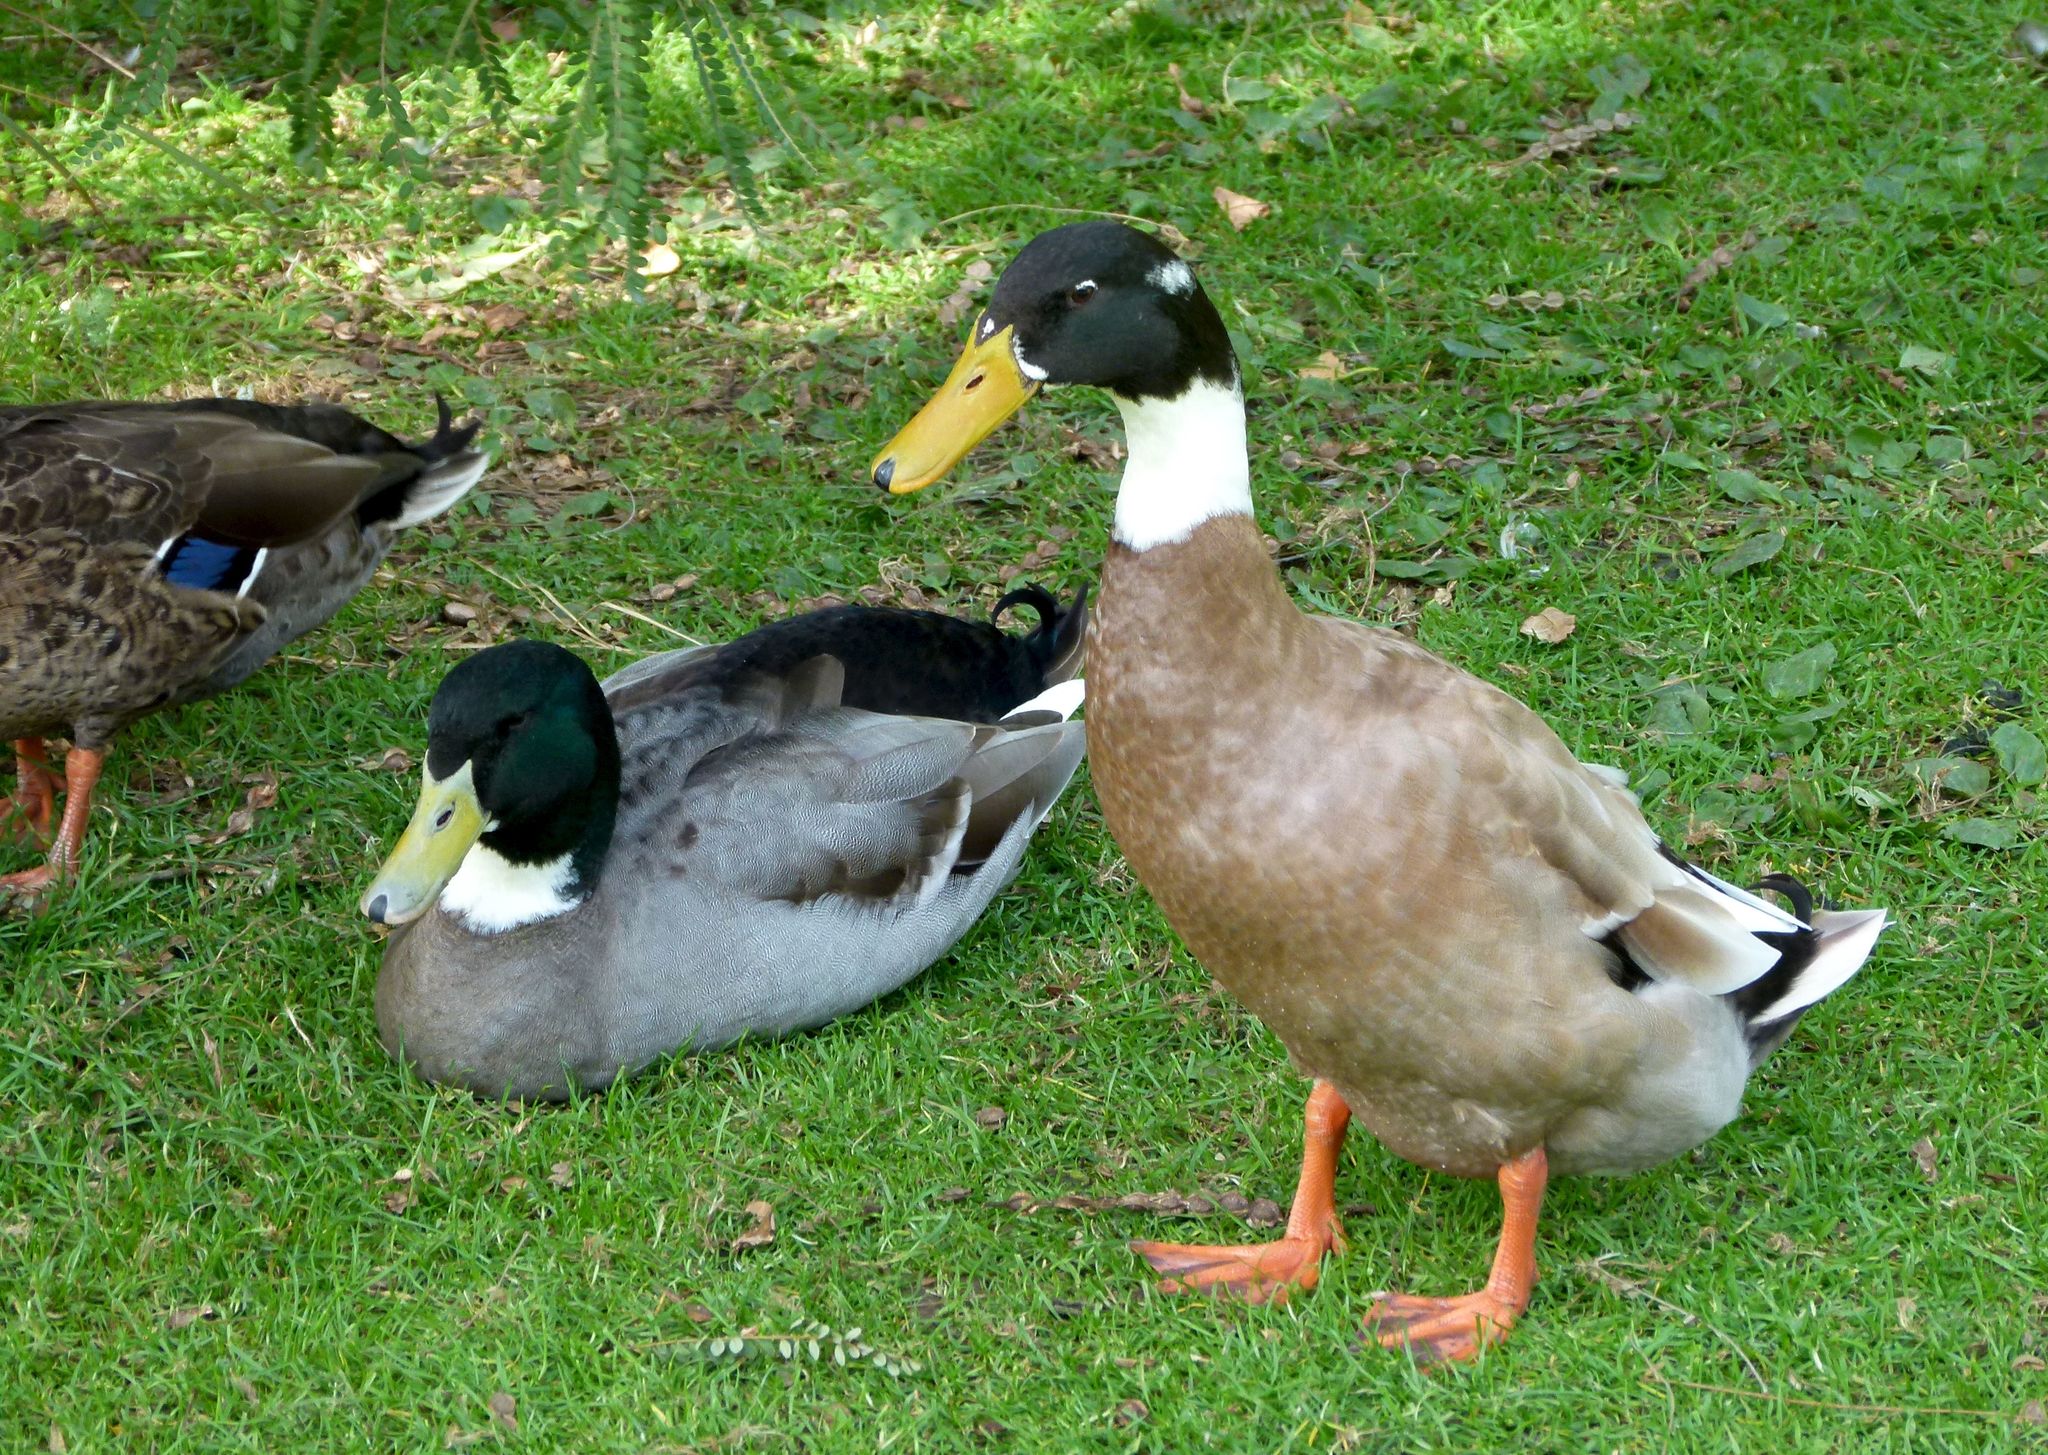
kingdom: Animalia
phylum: Chordata
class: Aves
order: Anseriformes
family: Anatidae
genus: Anas
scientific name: Anas platyrhynchos
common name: Mallard
